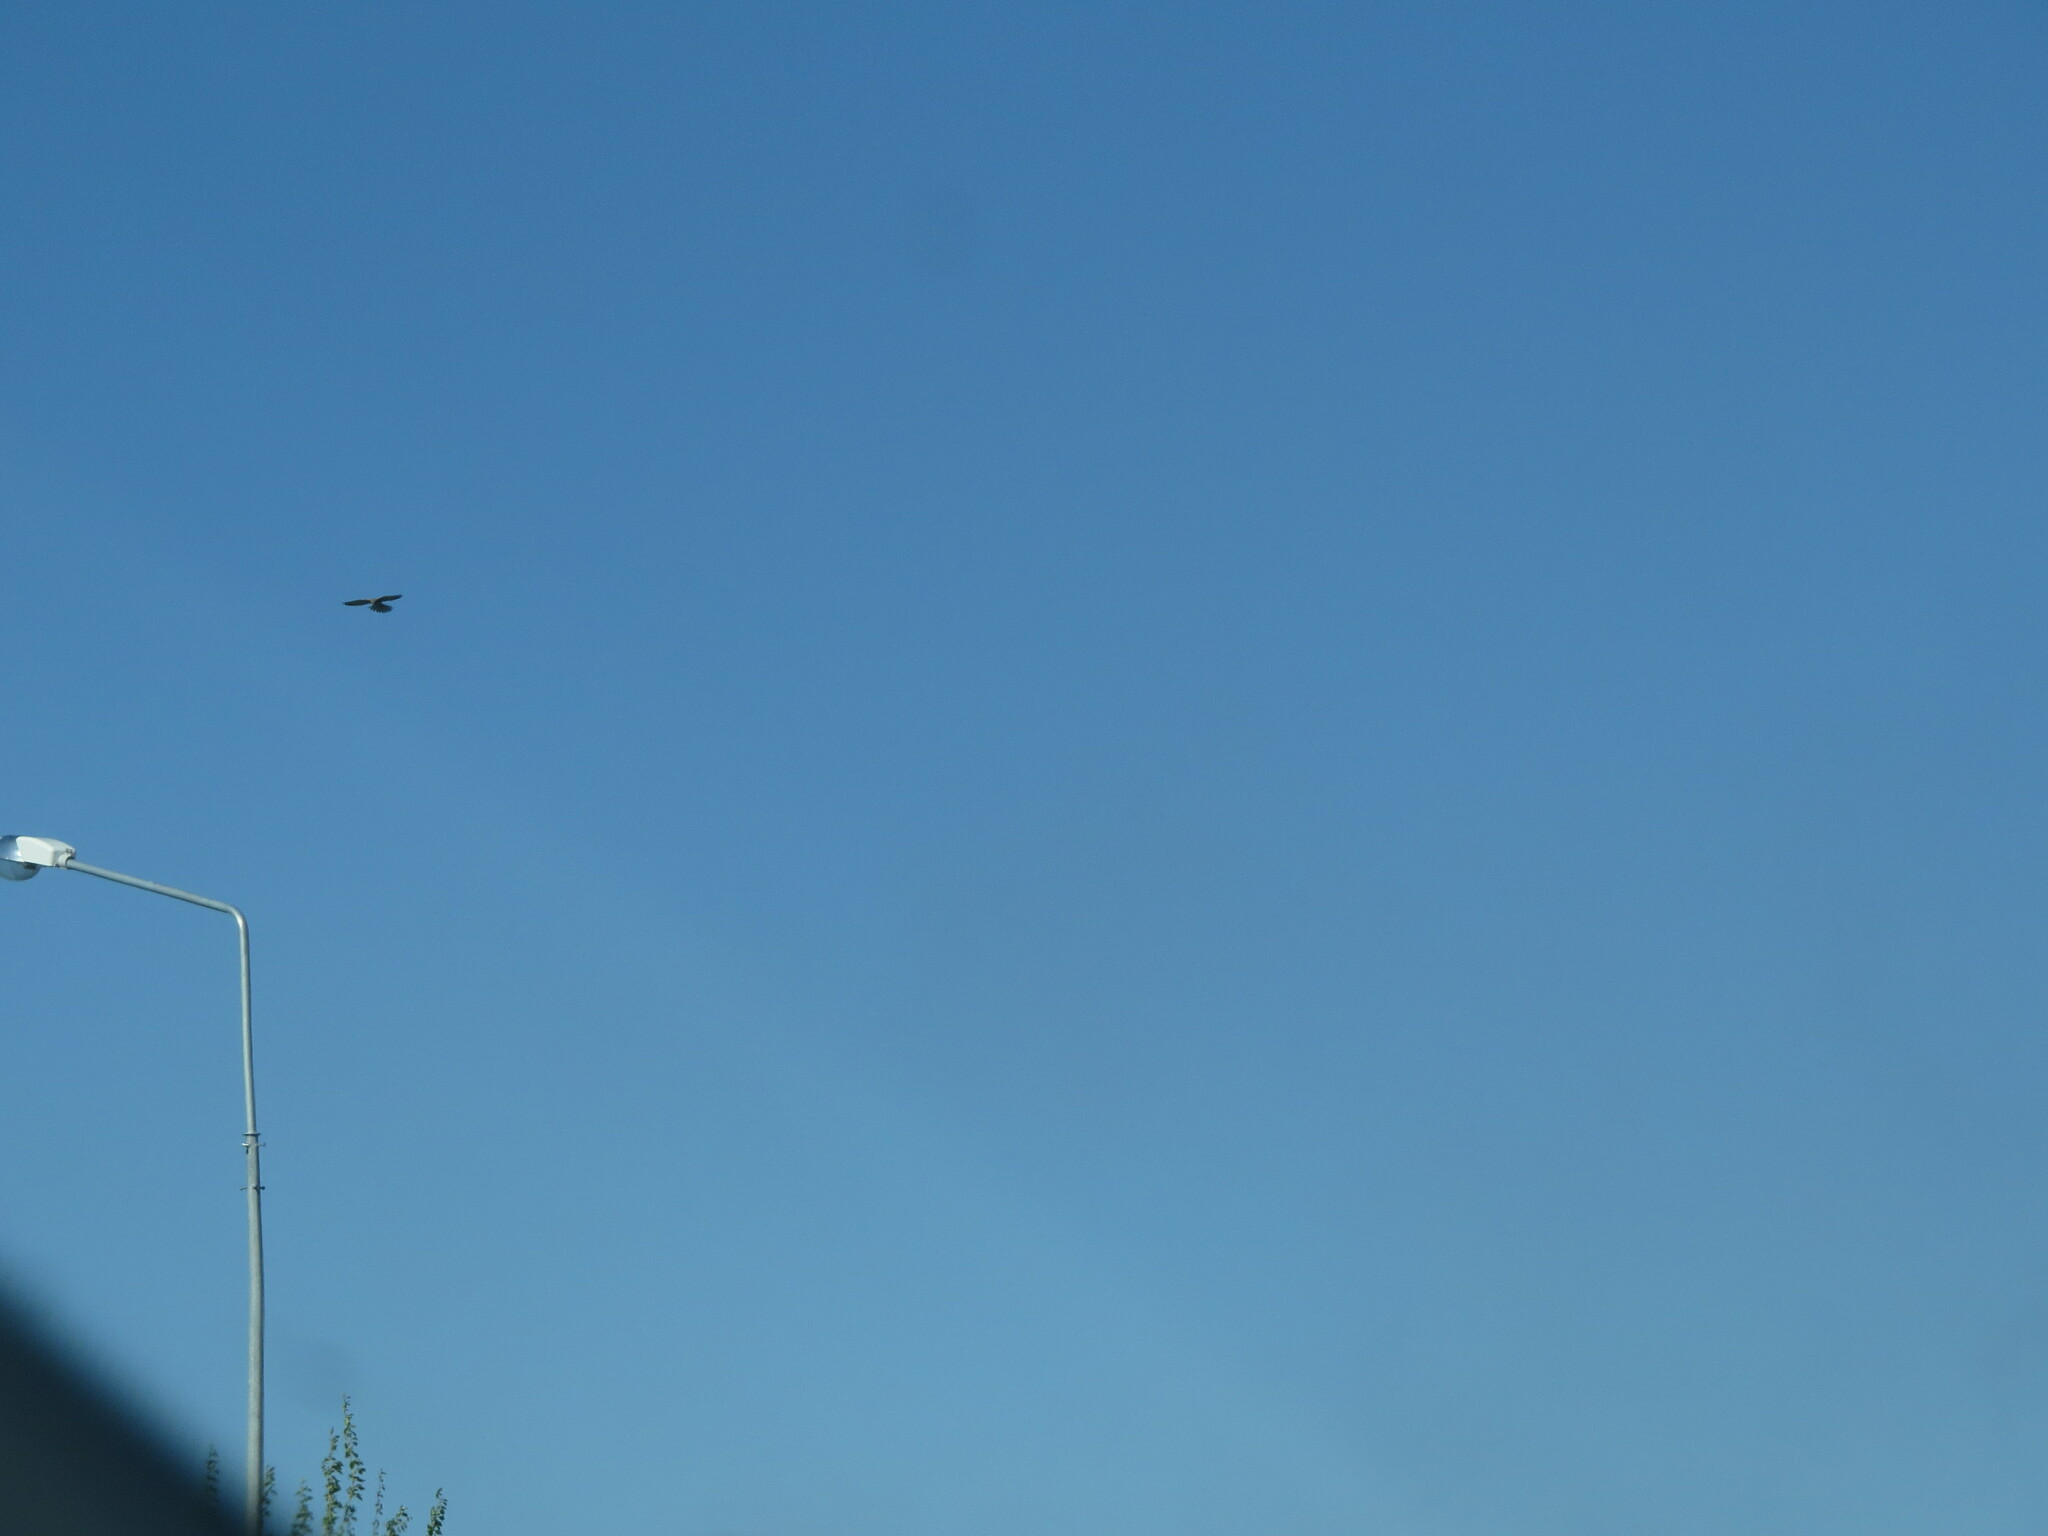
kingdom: Animalia
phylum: Chordata
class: Aves
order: Falconiformes
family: Falconidae
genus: Falco
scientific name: Falco tinnunculus
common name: Common kestrel
